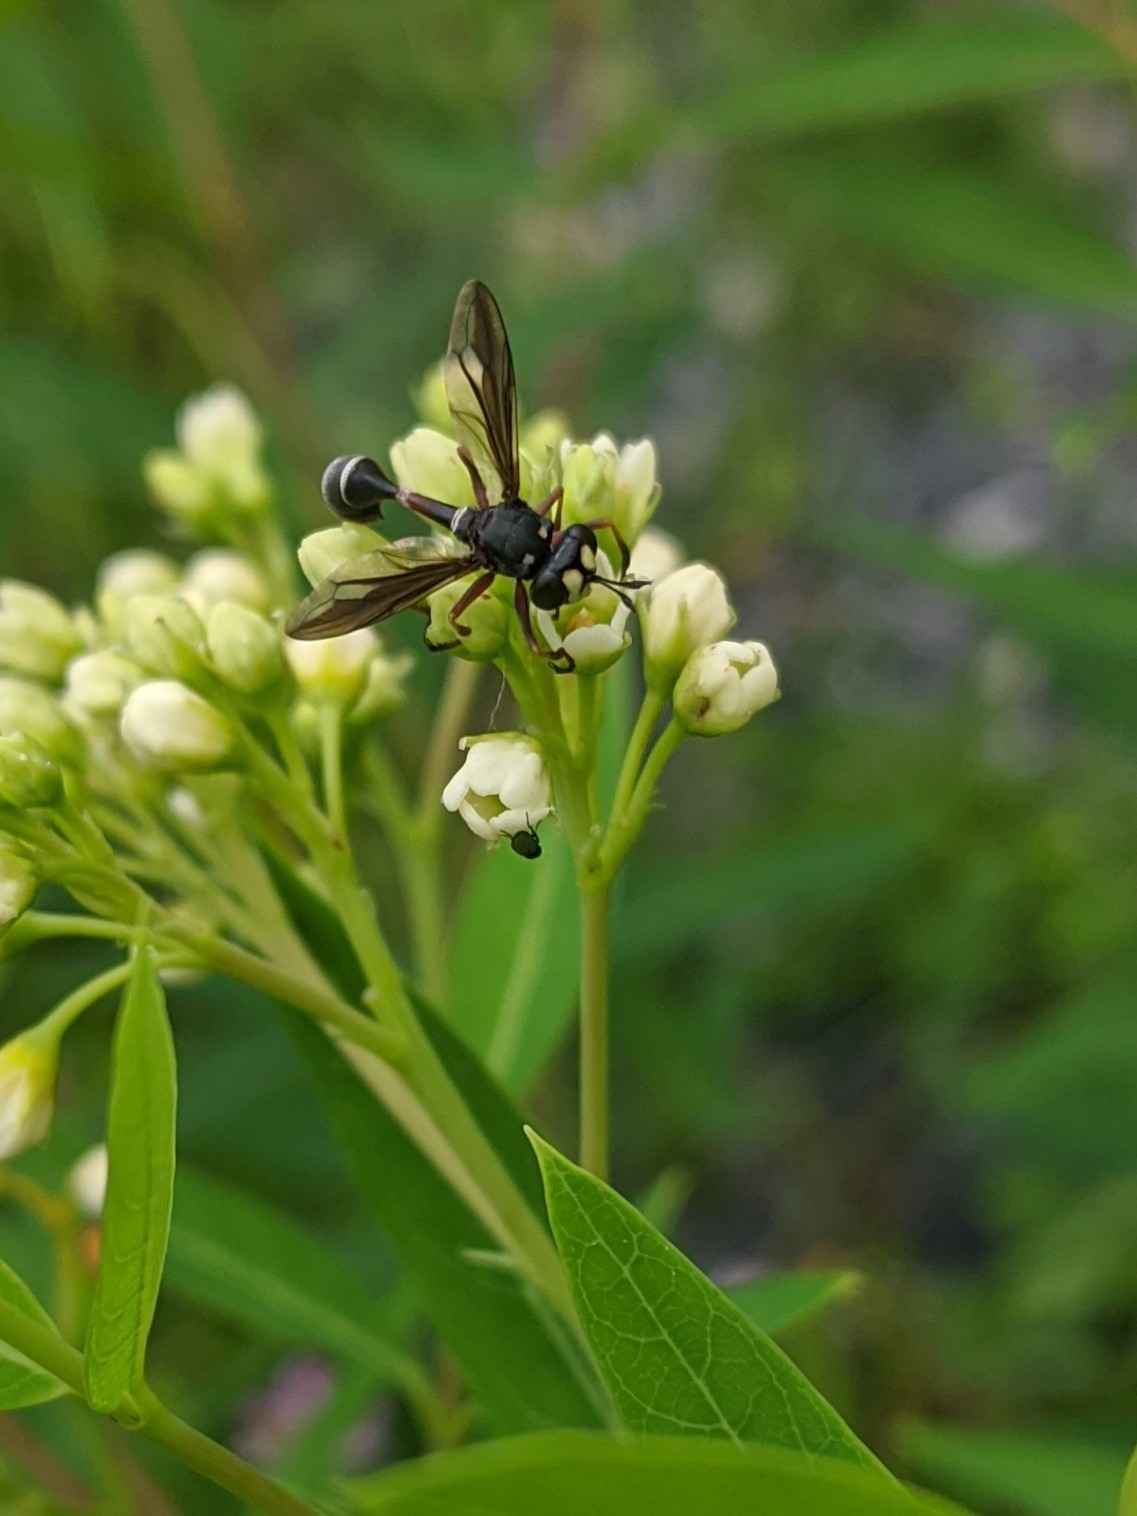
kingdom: Animalia
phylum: Arthropoda
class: Insecta
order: Diptera
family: Conopidae
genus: Physocephala
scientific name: Physocephala furcillata
